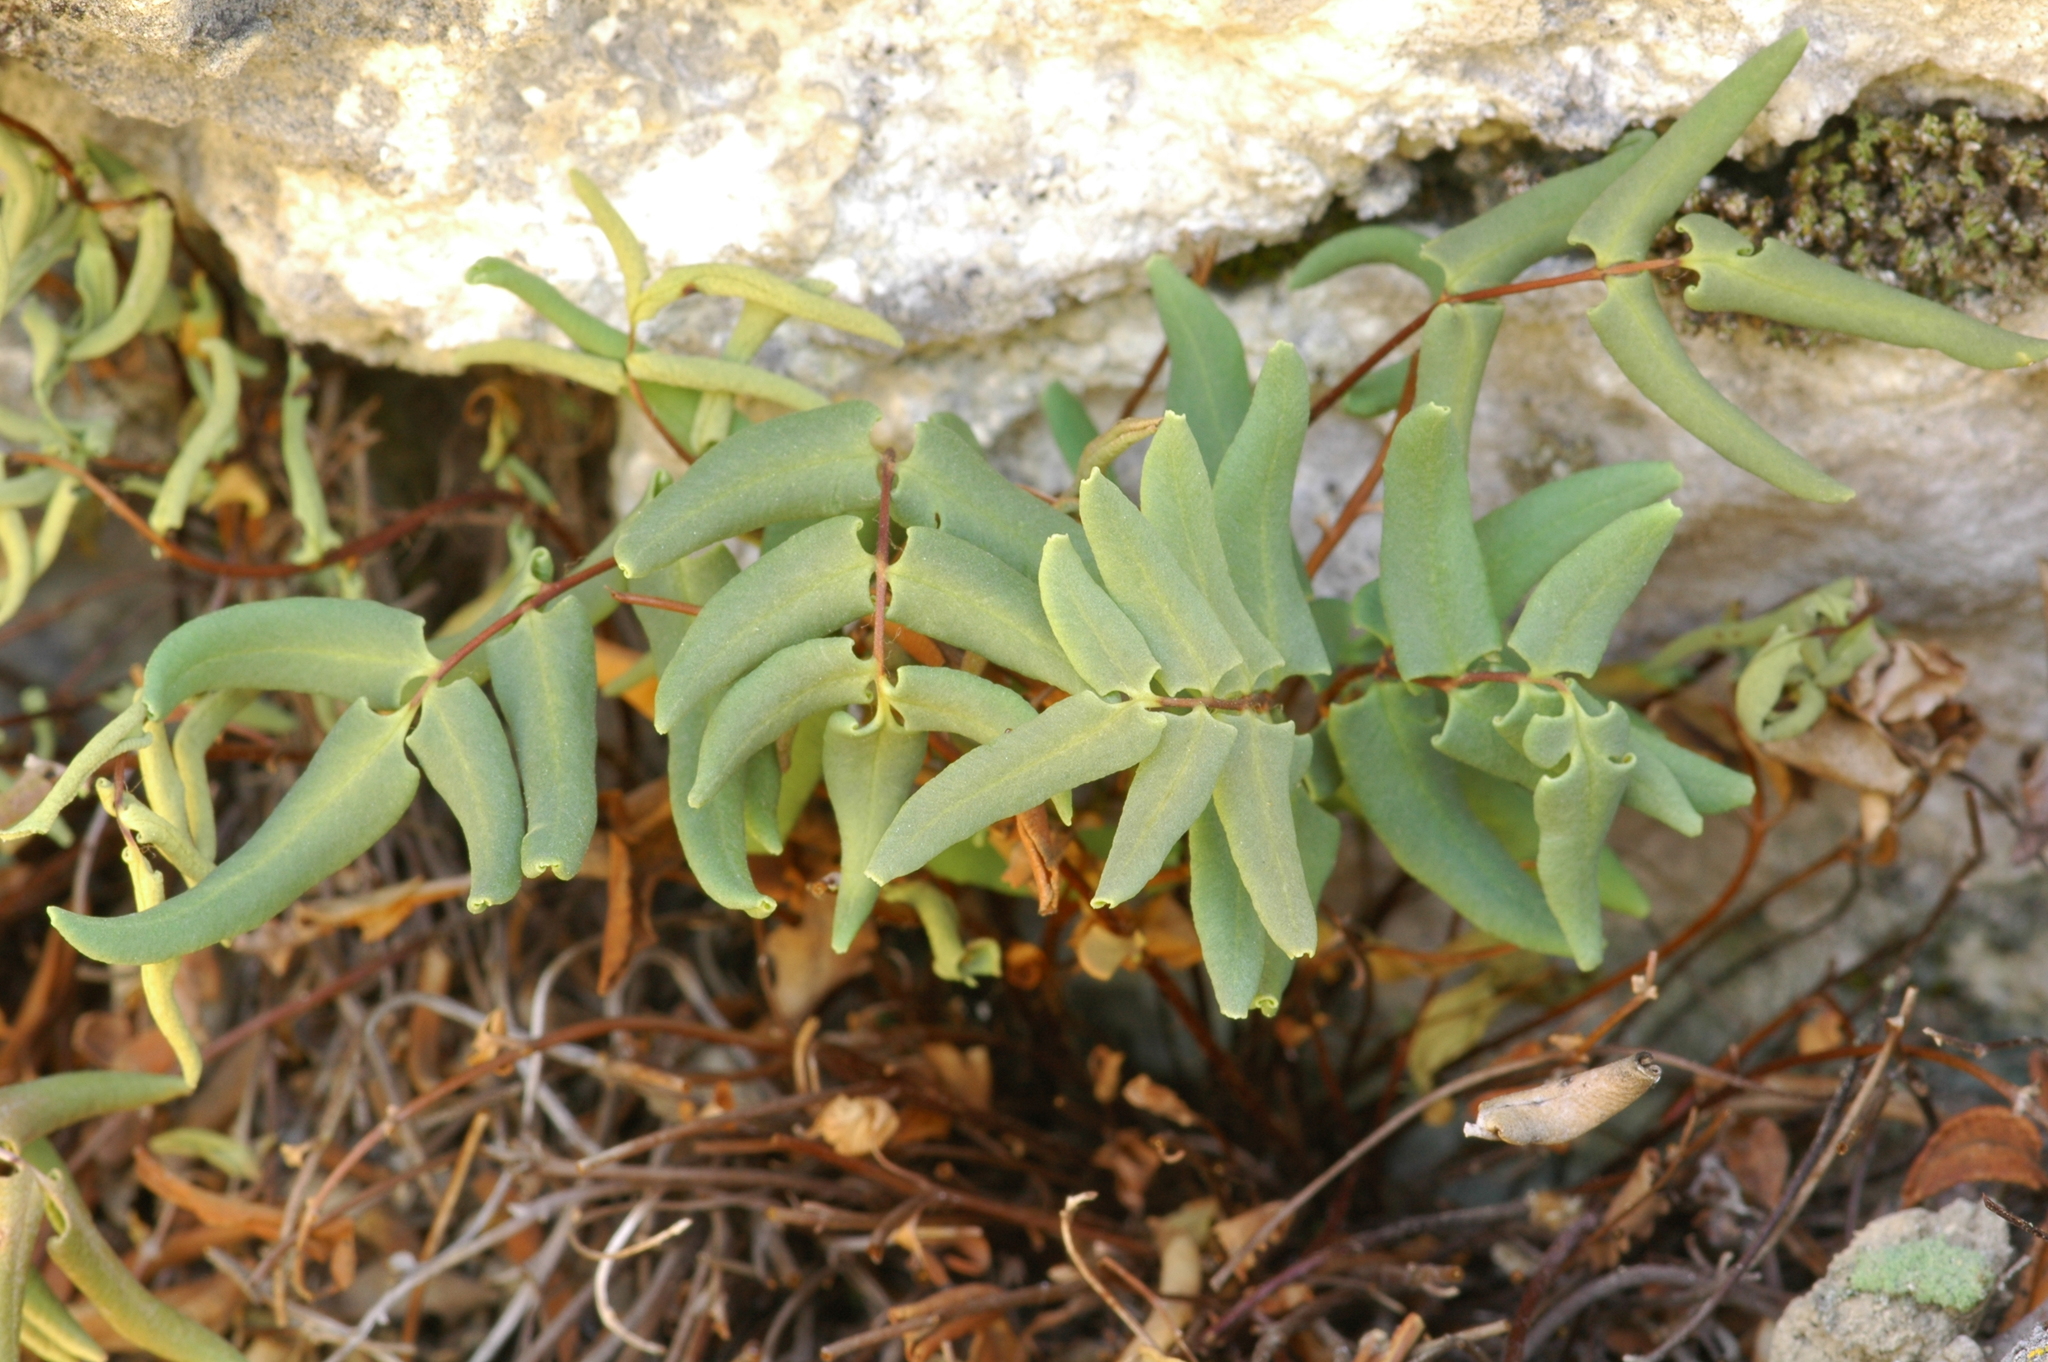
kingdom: Plantae
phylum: Tracheophyta
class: Polypodiopsida
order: Polypodiales
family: Pteridaceae
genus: Pellaea
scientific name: Pellaea glabella
